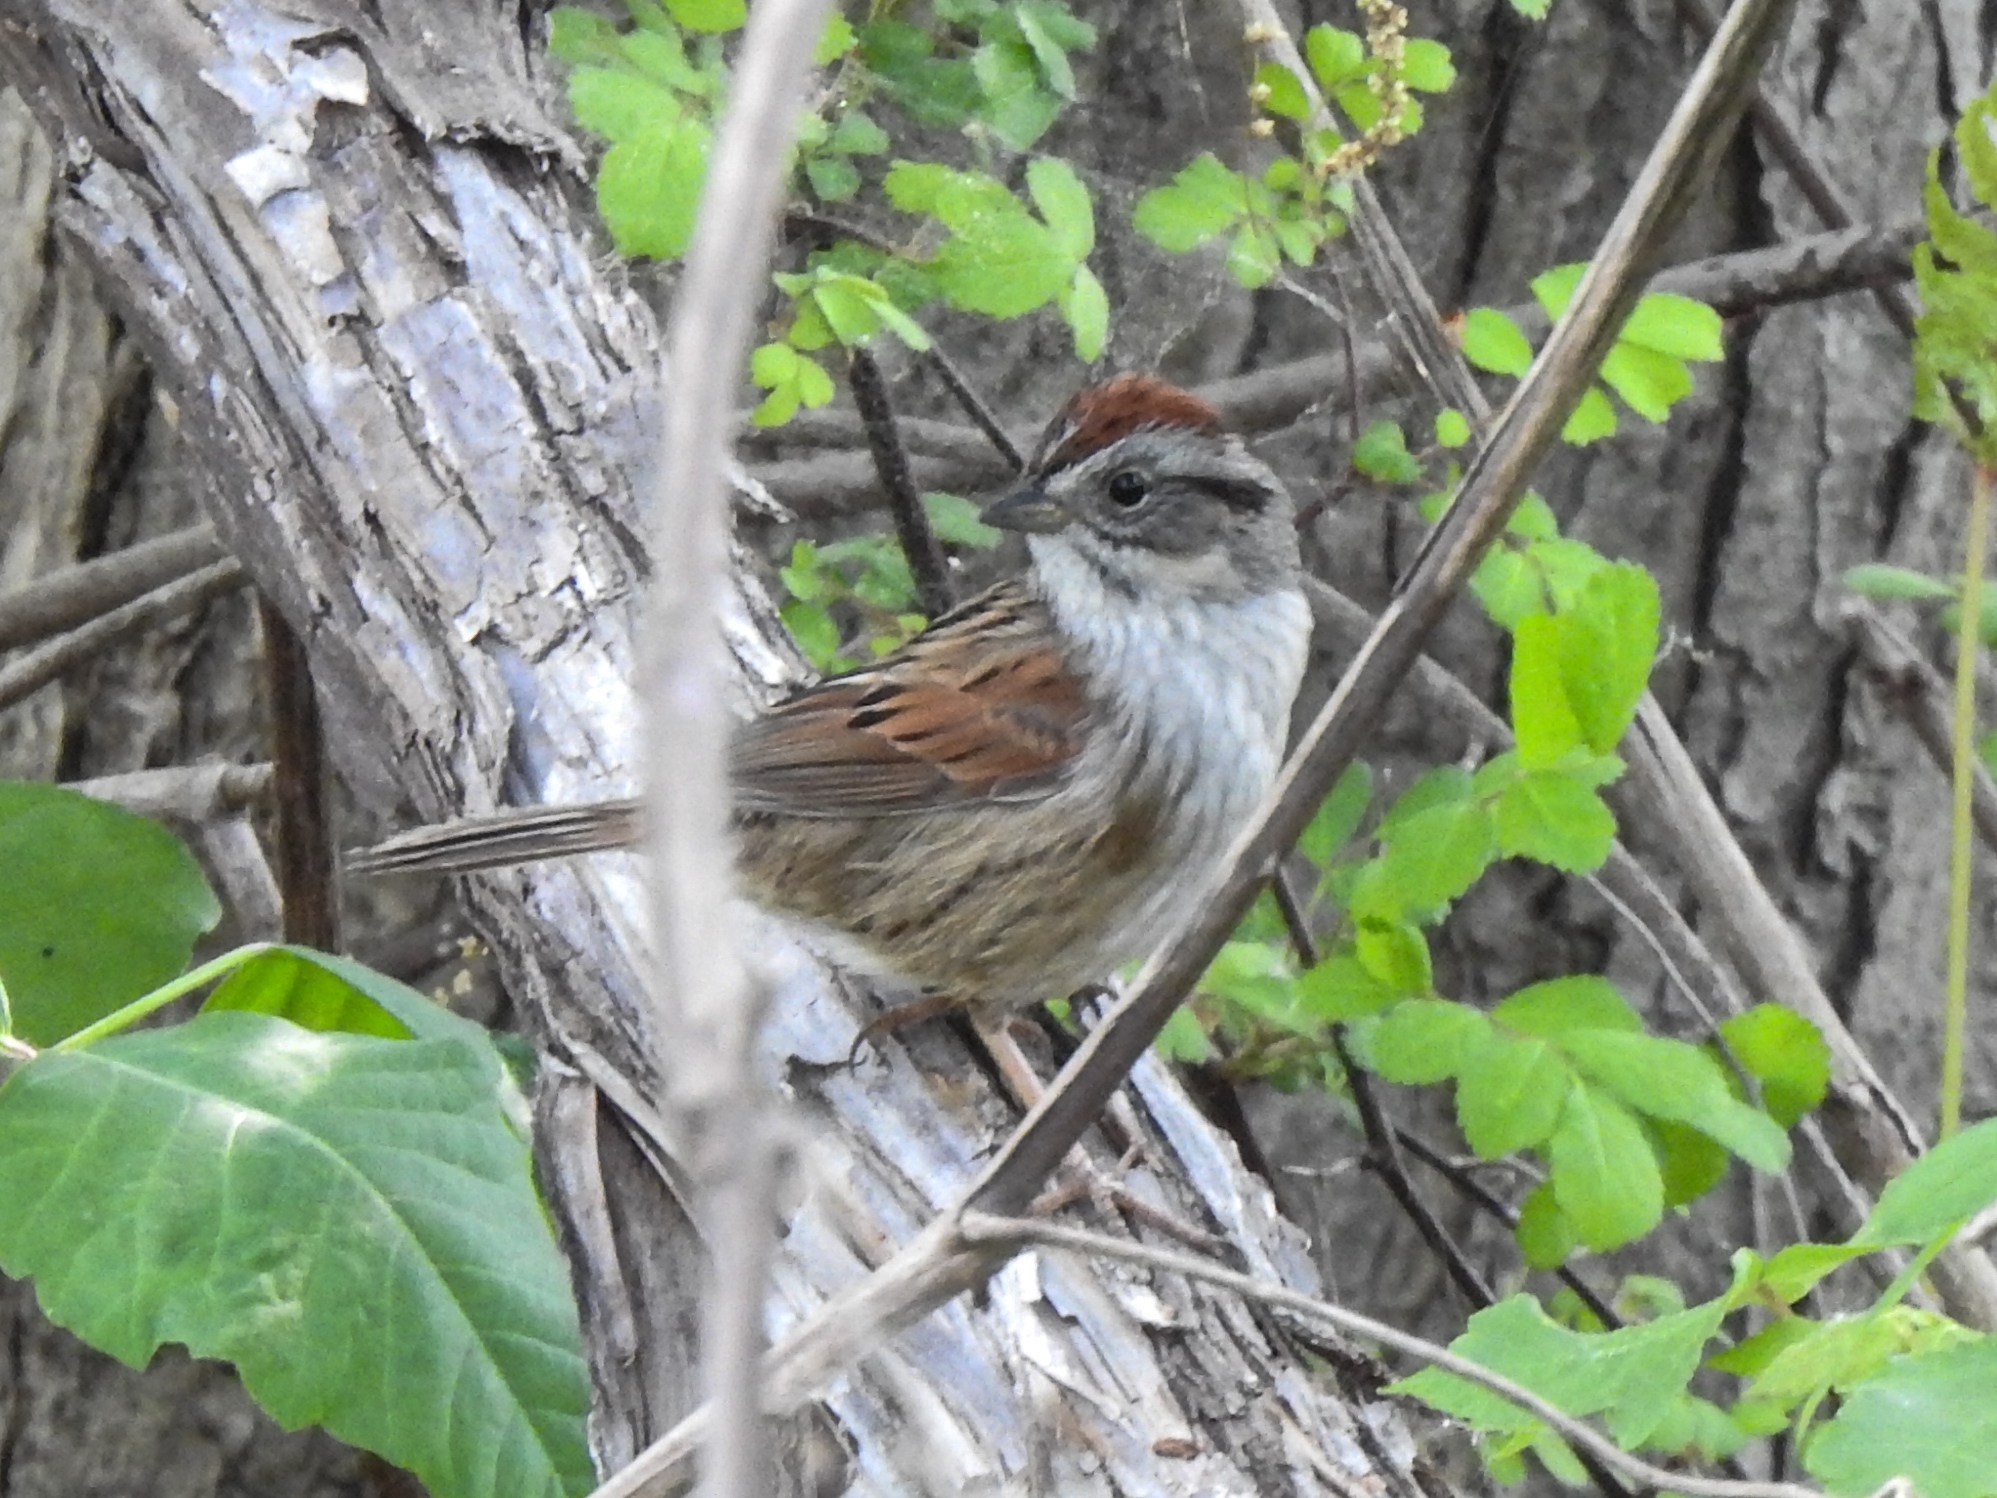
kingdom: Animalia
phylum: Chordata
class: Aves
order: Passeriformes
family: Passerellidae
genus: Melospiza
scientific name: Melospiza georgiana
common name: Swamp sparrow
